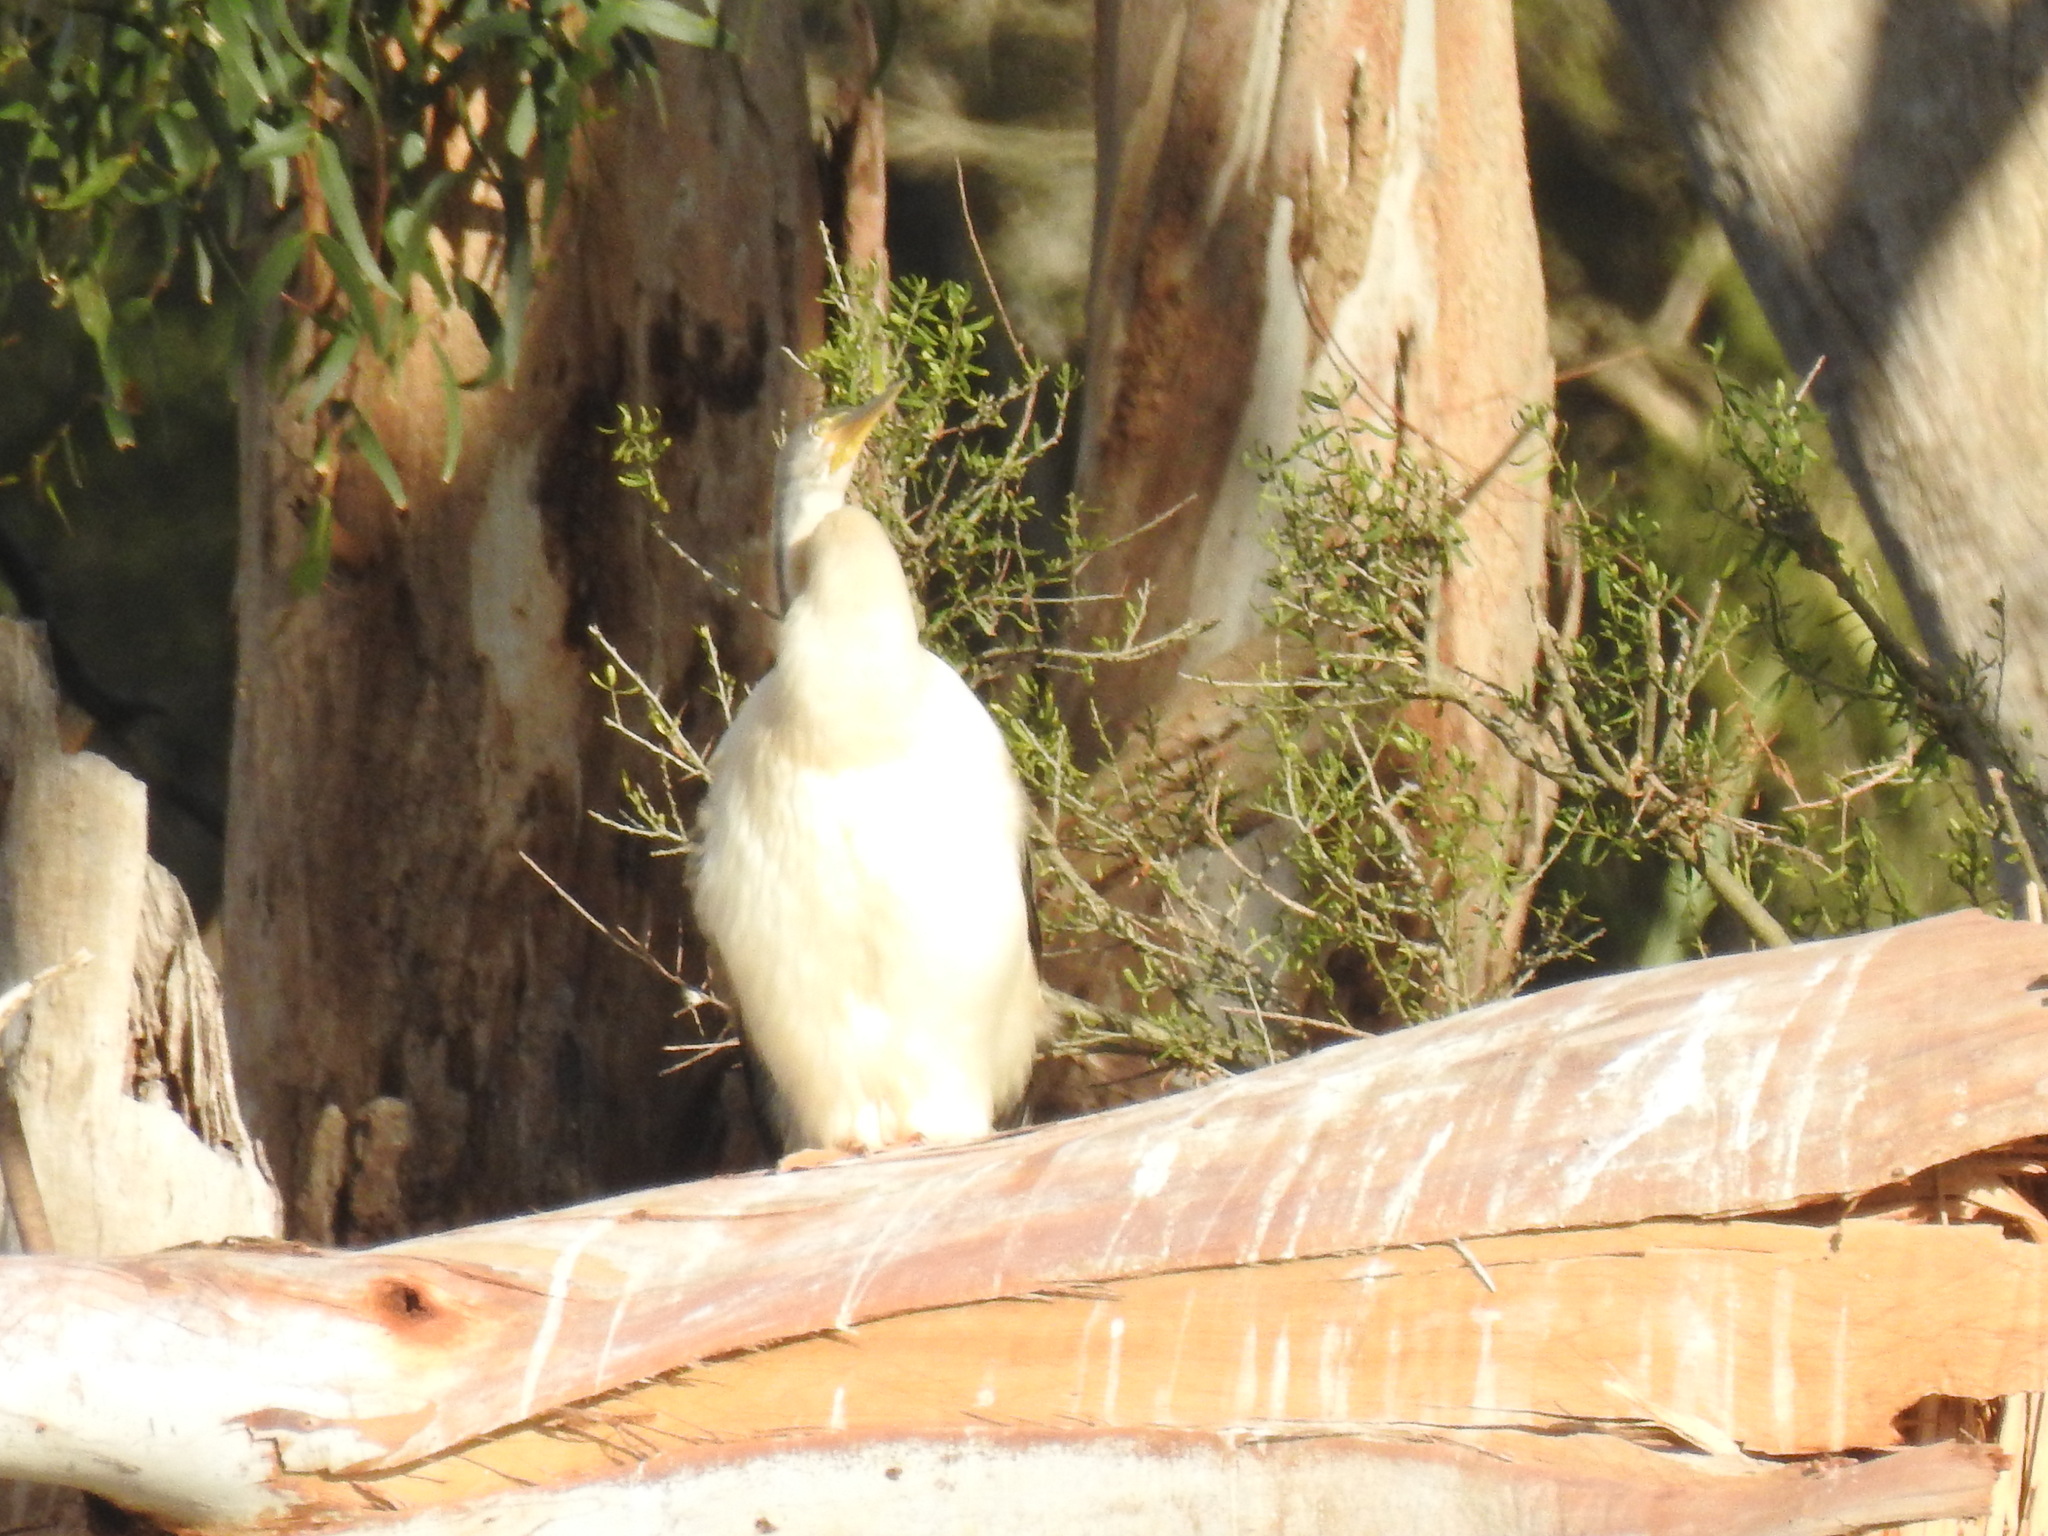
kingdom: Animalia
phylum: Chordata
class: Aves
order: Suliformes
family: Anhingidae
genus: Anhinga
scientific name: Anhinga novaehollandiae
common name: Australasian darter
